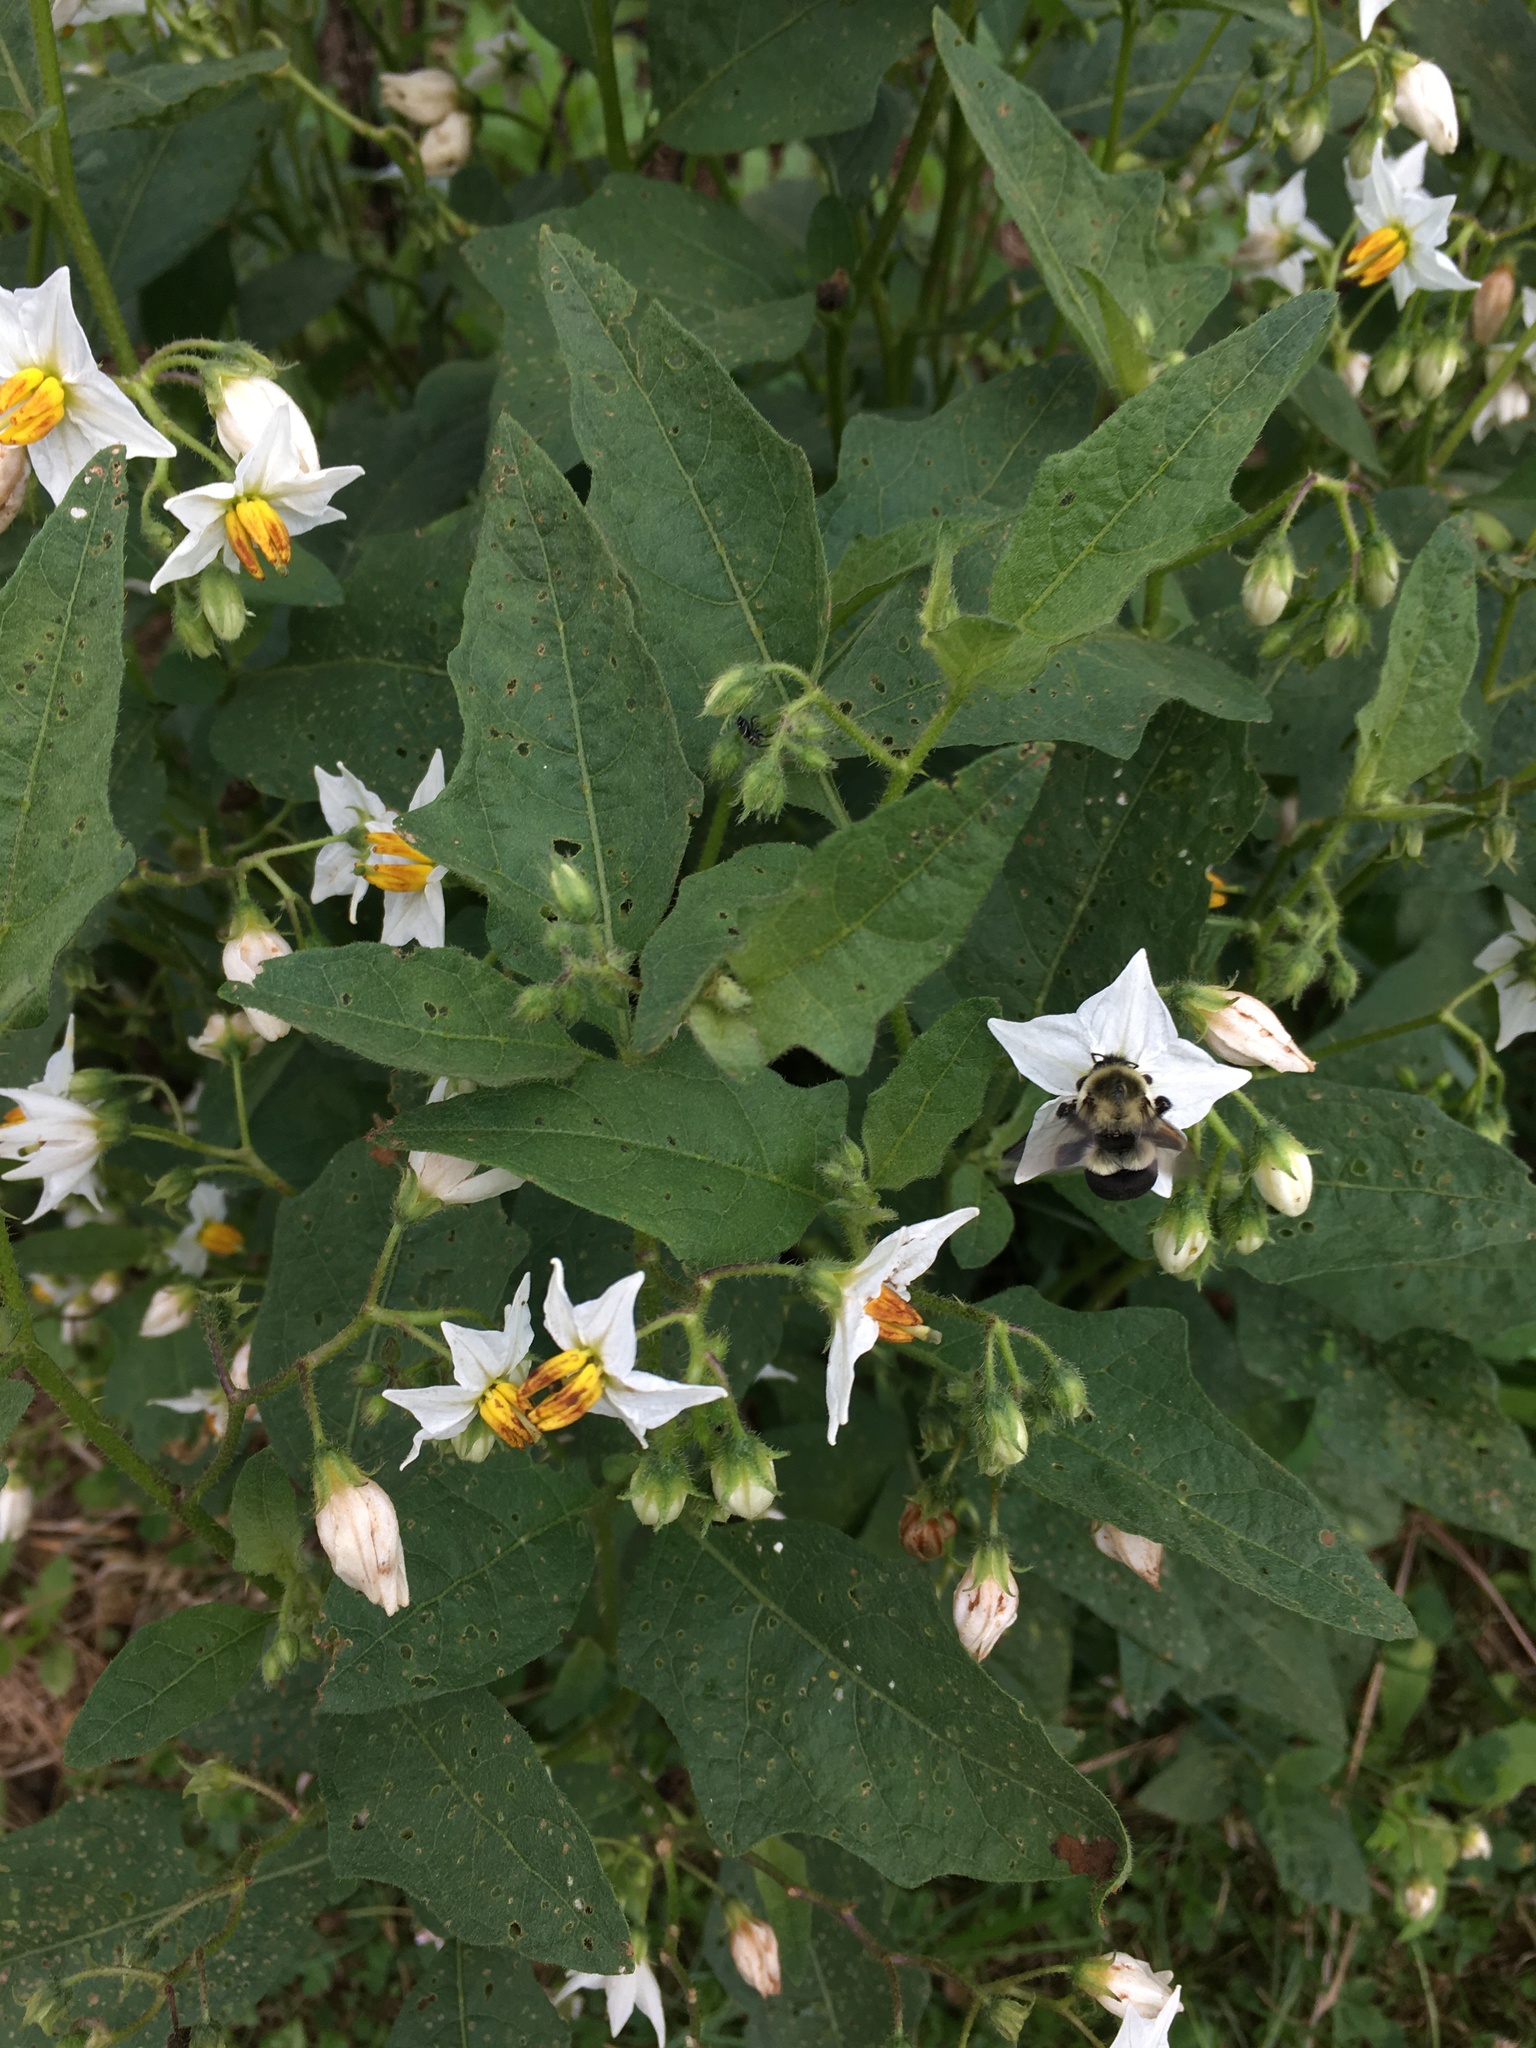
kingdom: Plantae
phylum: Tracheophyta
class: Magnoliopsida
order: Solanales
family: Solanaceae
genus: Solanum
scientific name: Solanum carolinense
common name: Horse-nettle
